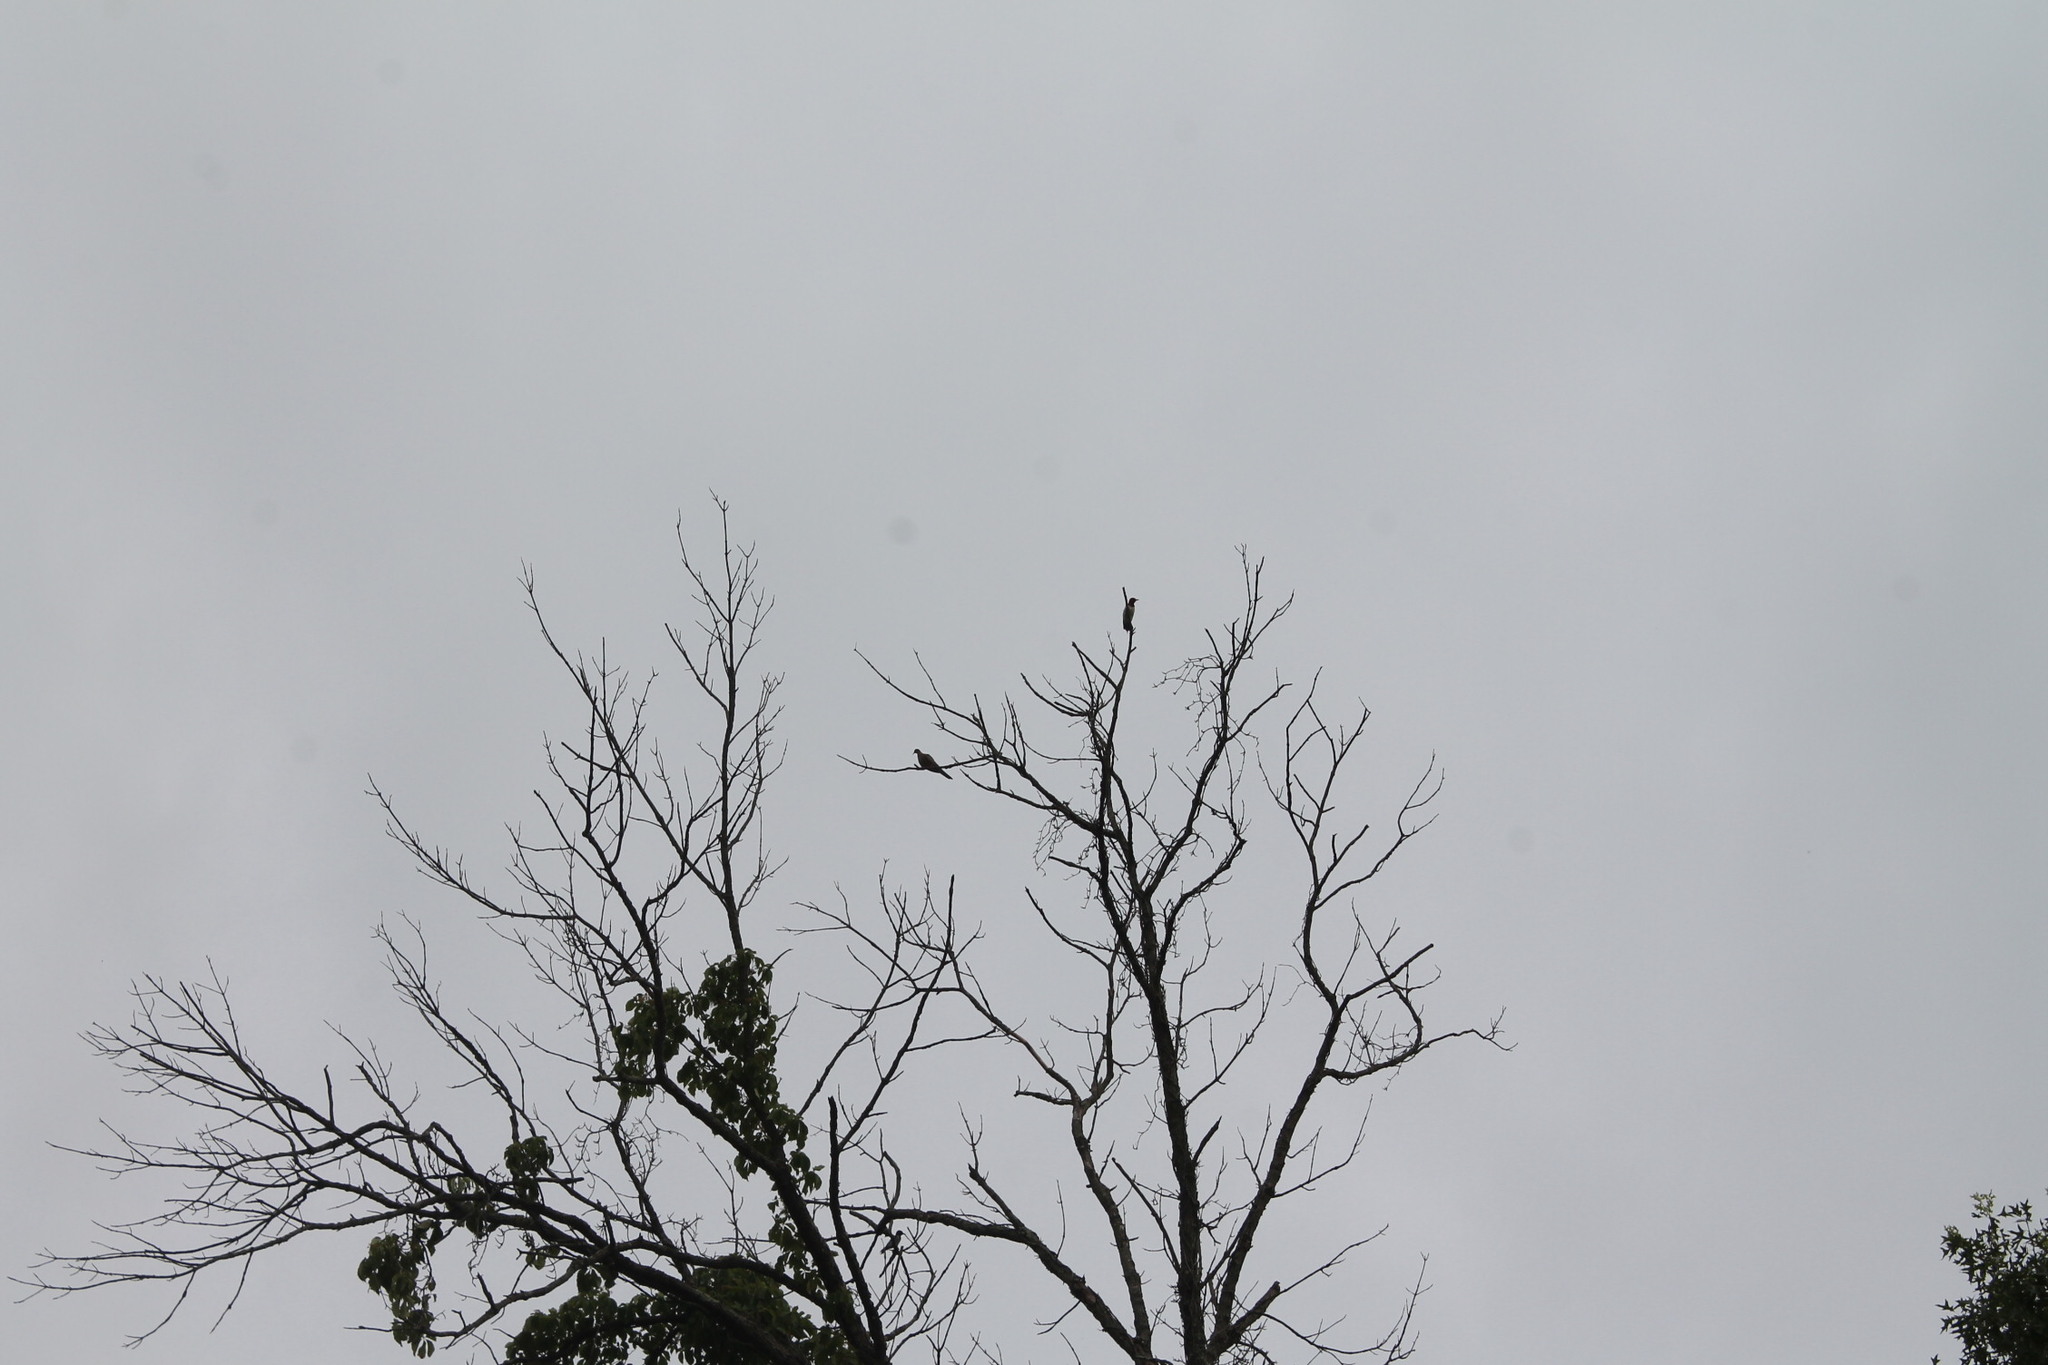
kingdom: Animalia
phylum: Chordata
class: Aves
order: Piciformes
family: Picidae
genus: Melanerpes
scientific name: Melanerpes erythrocephalus
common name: Red-headed woodpecker
